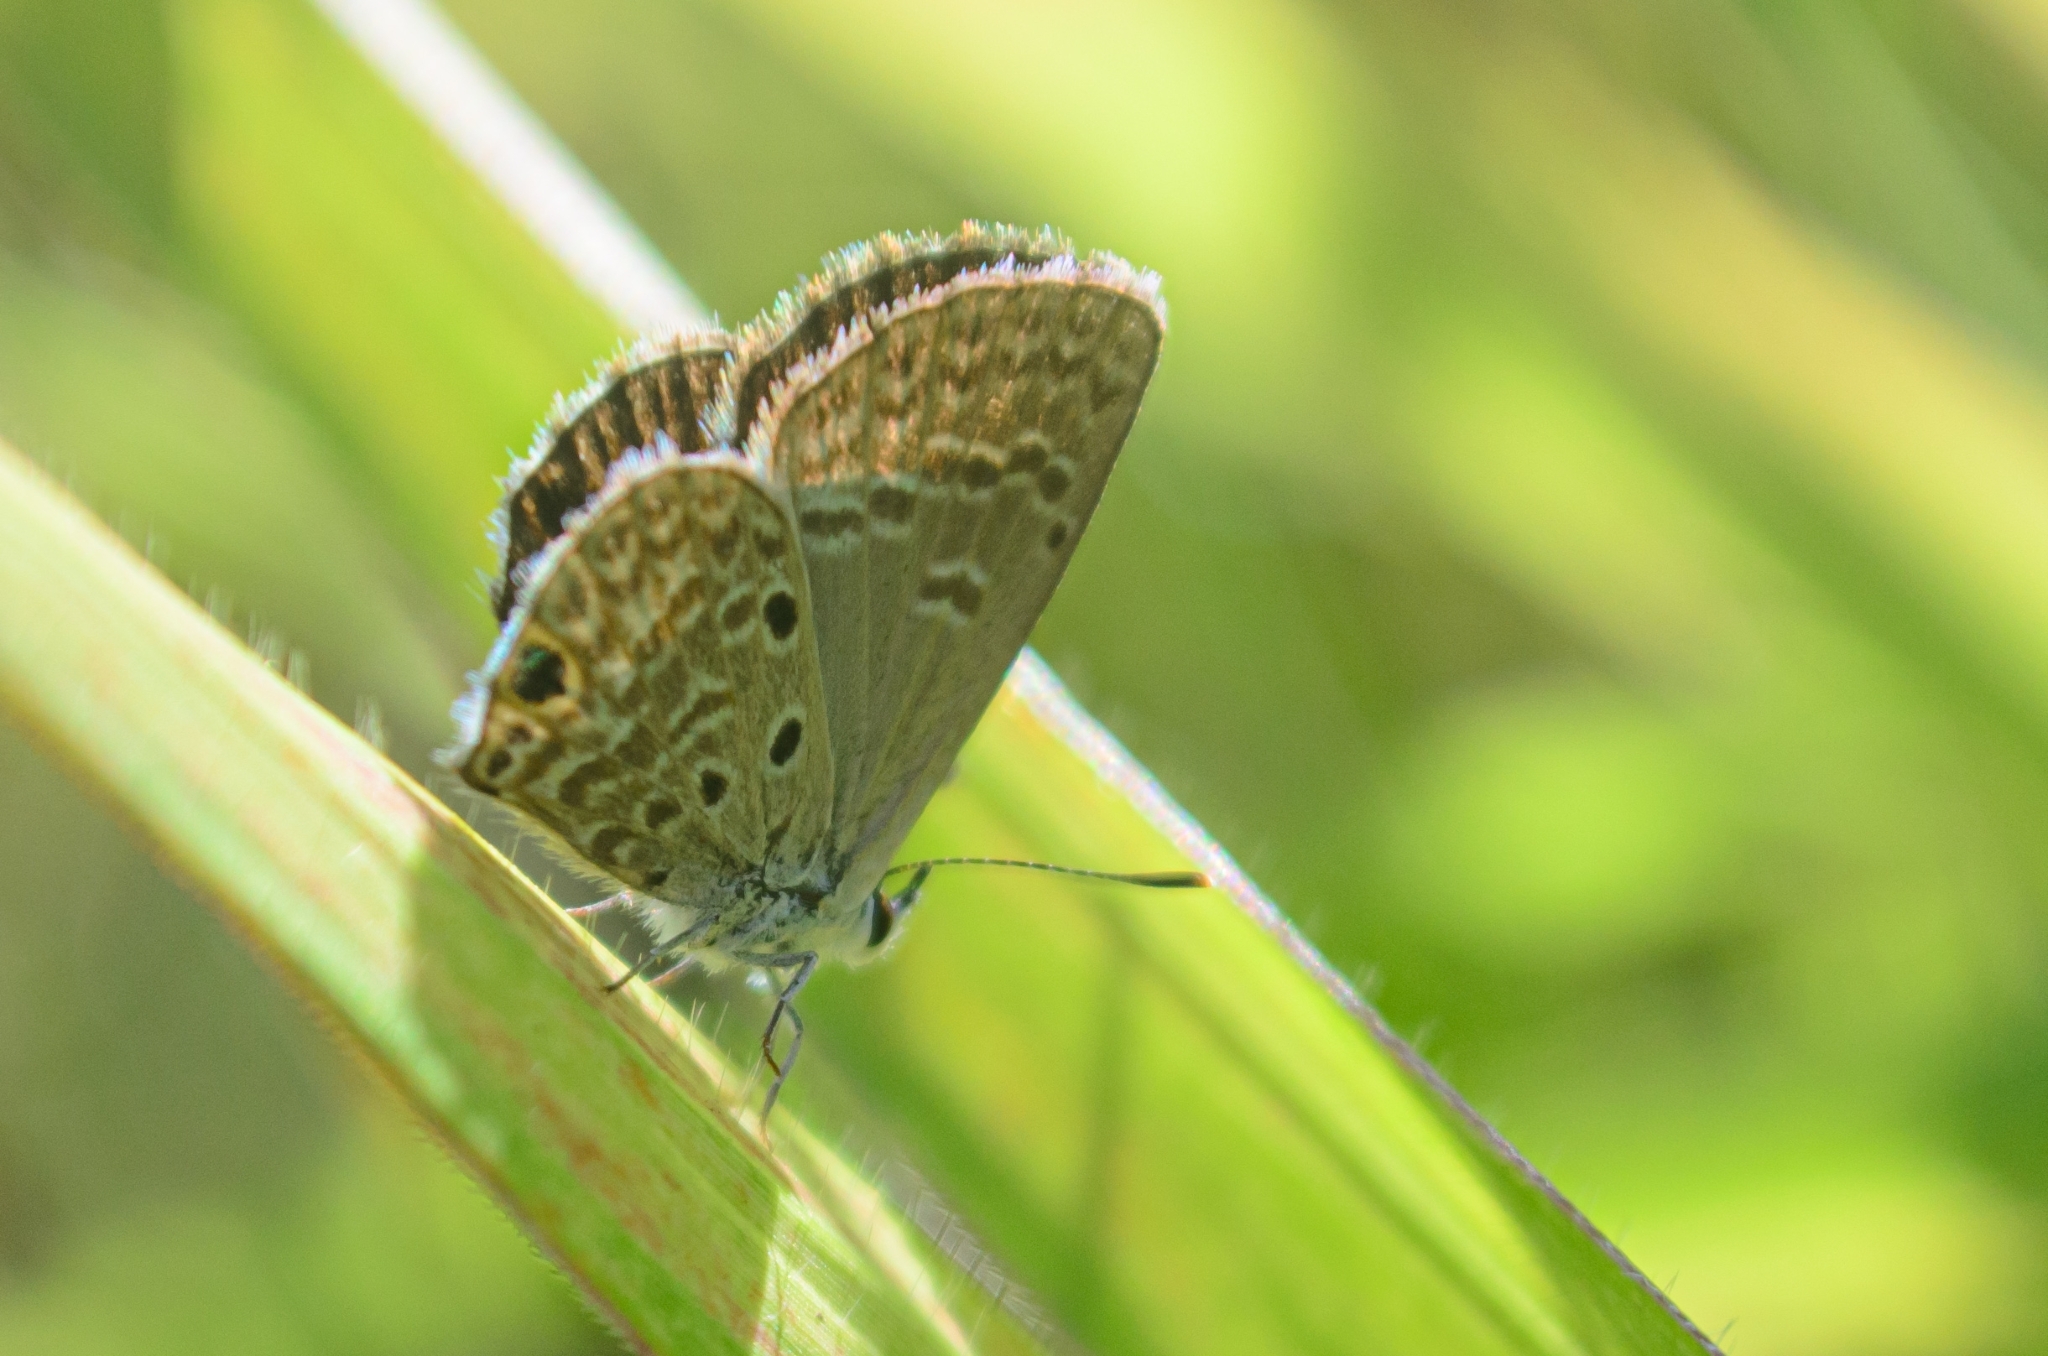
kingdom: Animalia
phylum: Arthropoda
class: Insecta
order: Lepidoptera
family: Lycaenidae
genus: Hemiargus
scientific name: Hemiargus hanno
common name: Common blue
